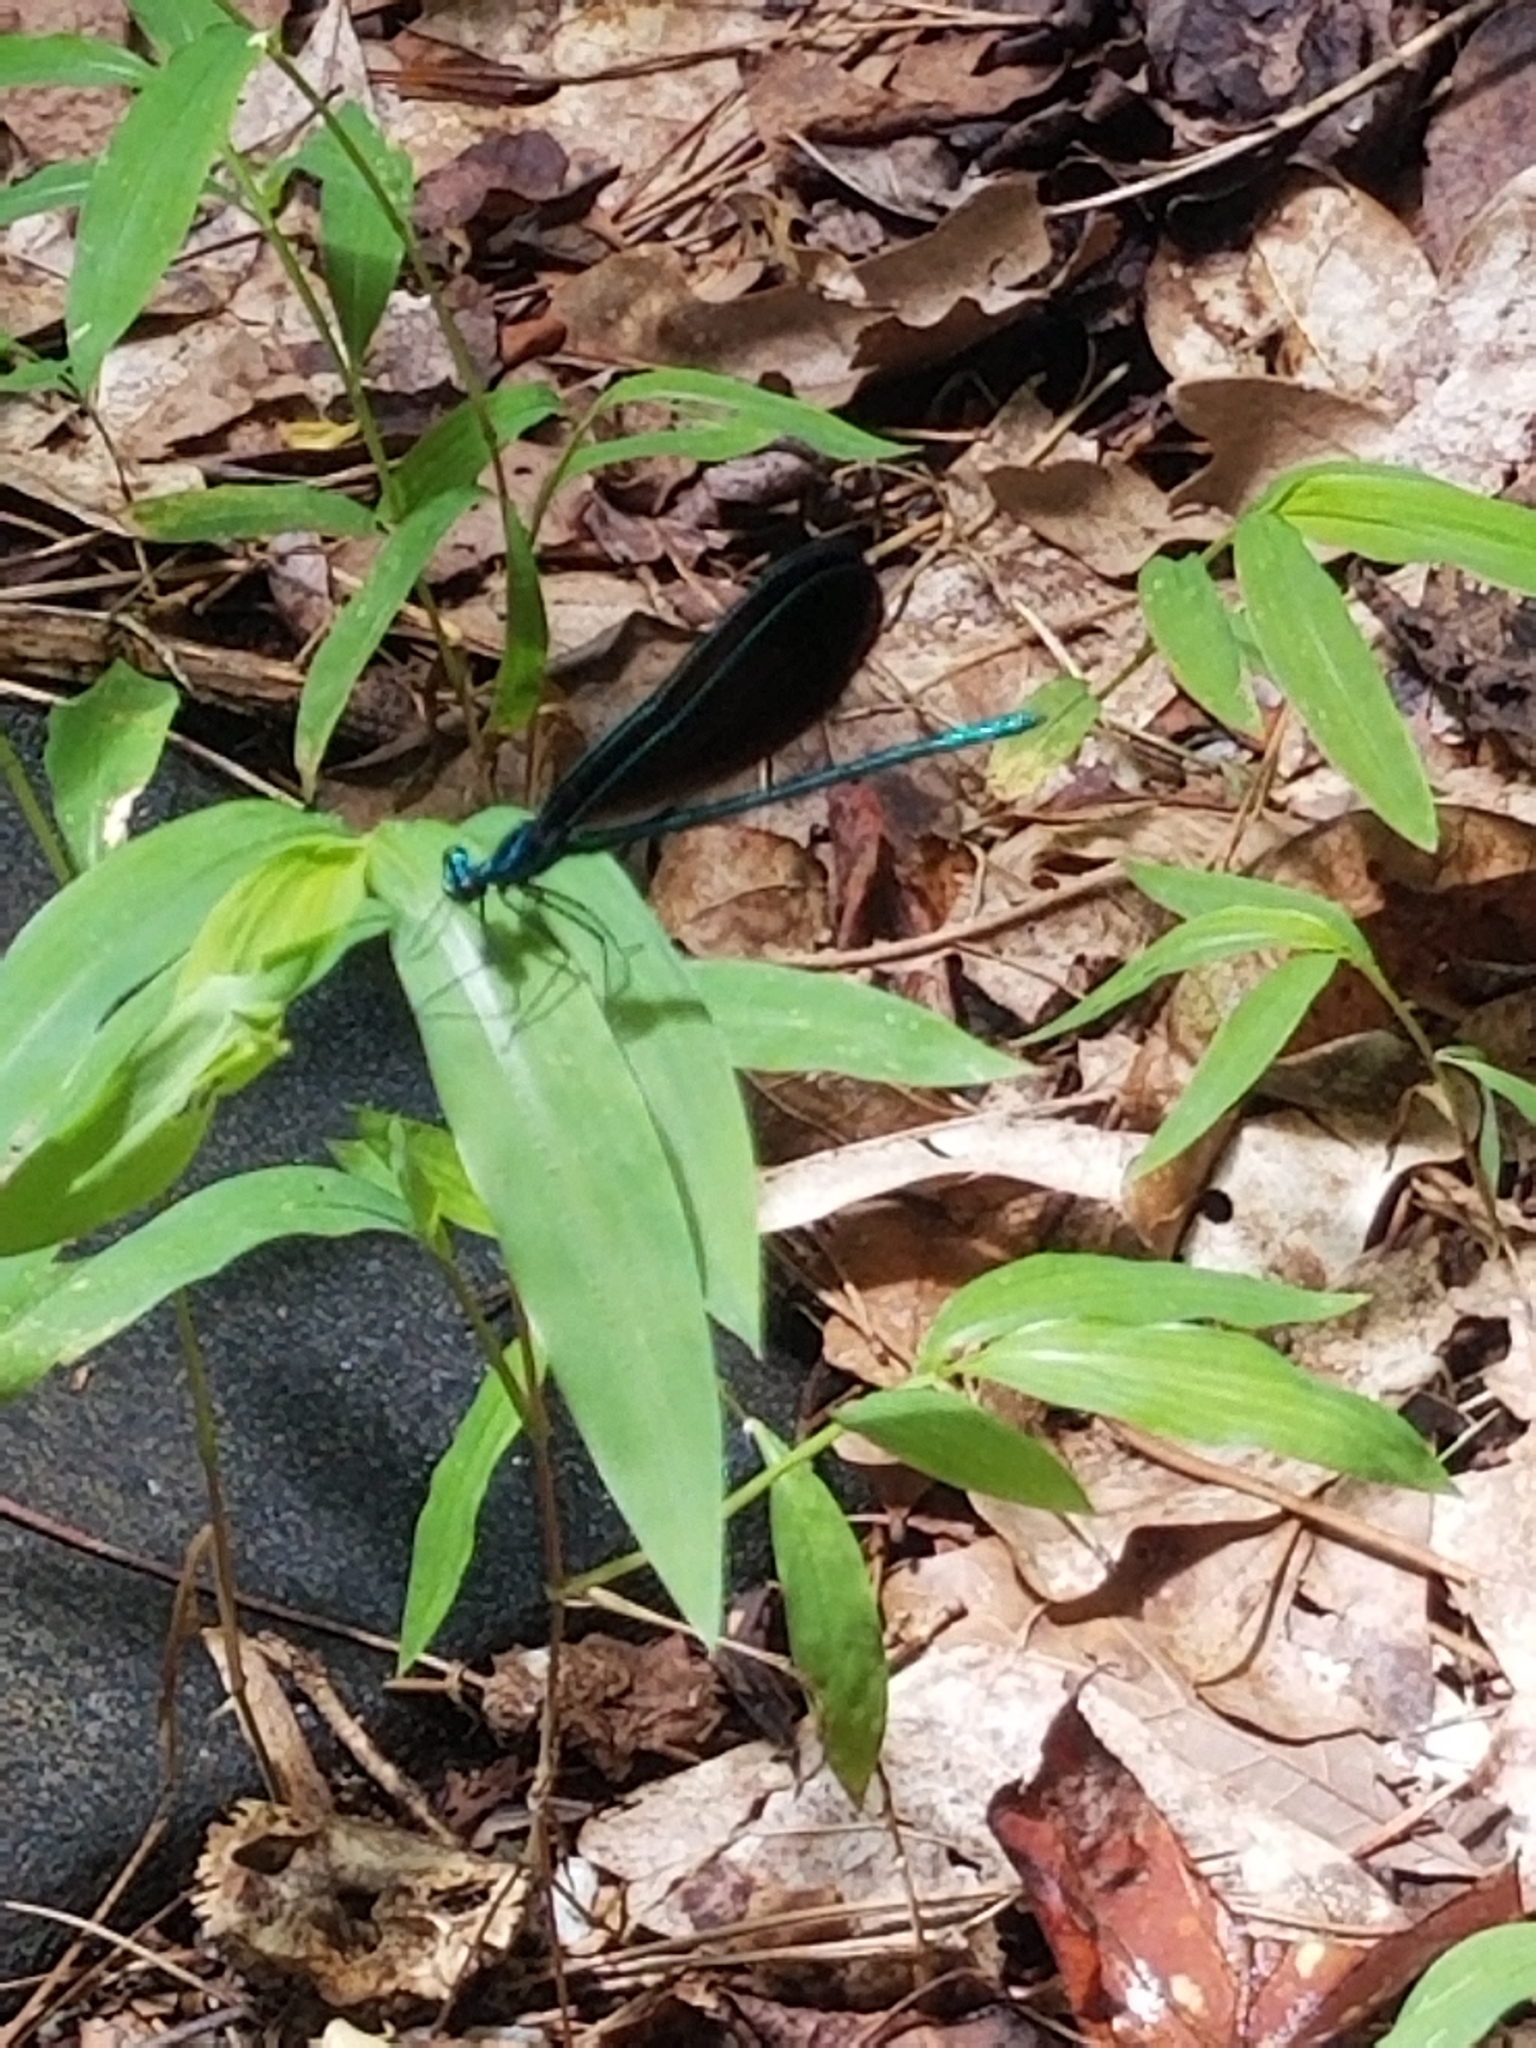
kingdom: Animalia
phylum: Arthropoda
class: Insecta
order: Odonata
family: Calopterygidae
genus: Calopteryx
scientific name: Calopteryx maculata
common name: Ebony jewelwing
